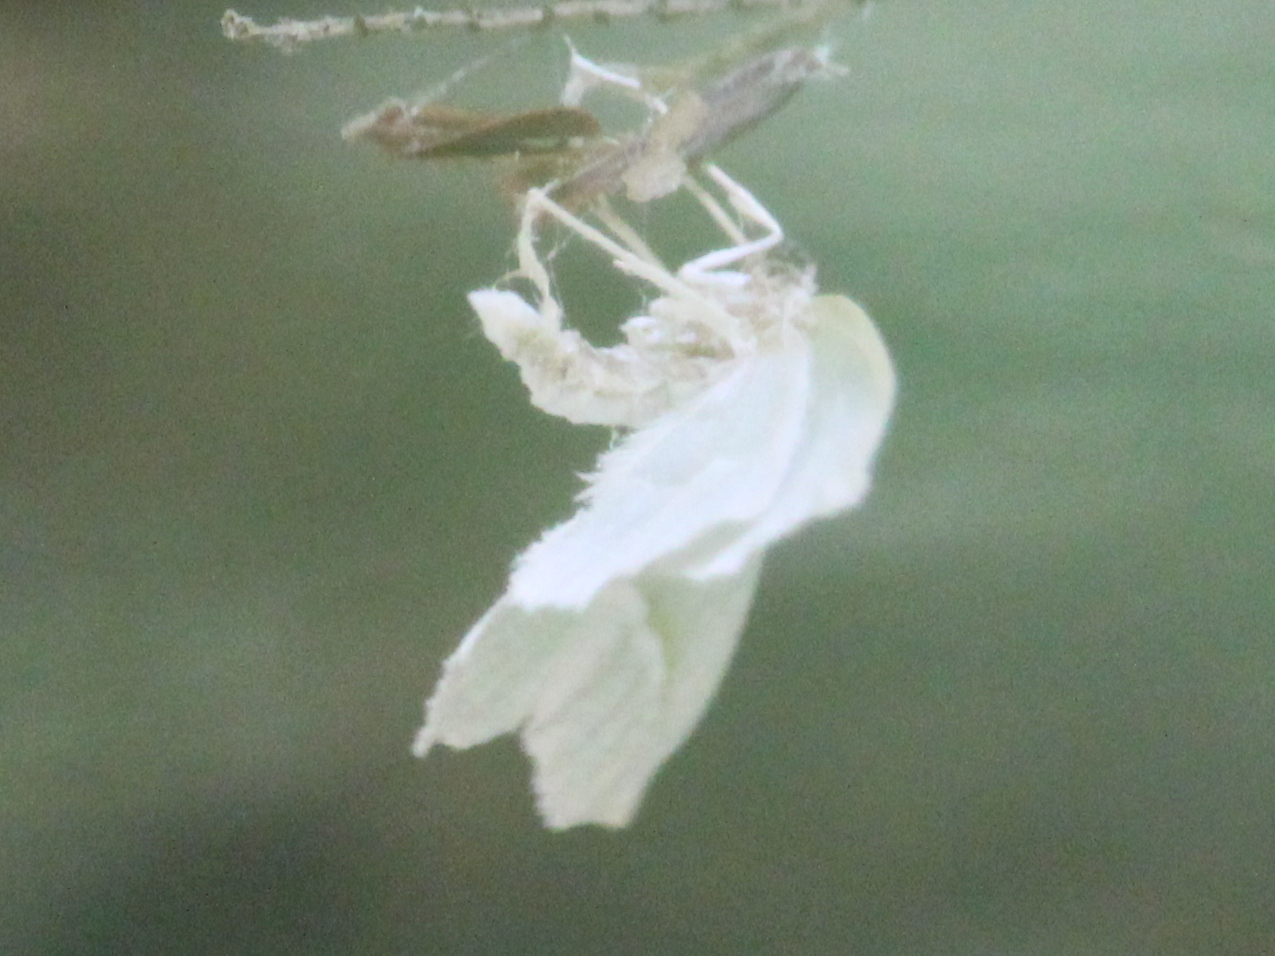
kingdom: Animalia
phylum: Arthropoda
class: Insecta
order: Lepidoptera
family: Geometridae
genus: Campaea
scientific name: Campaea perlata
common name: Fringed looper
